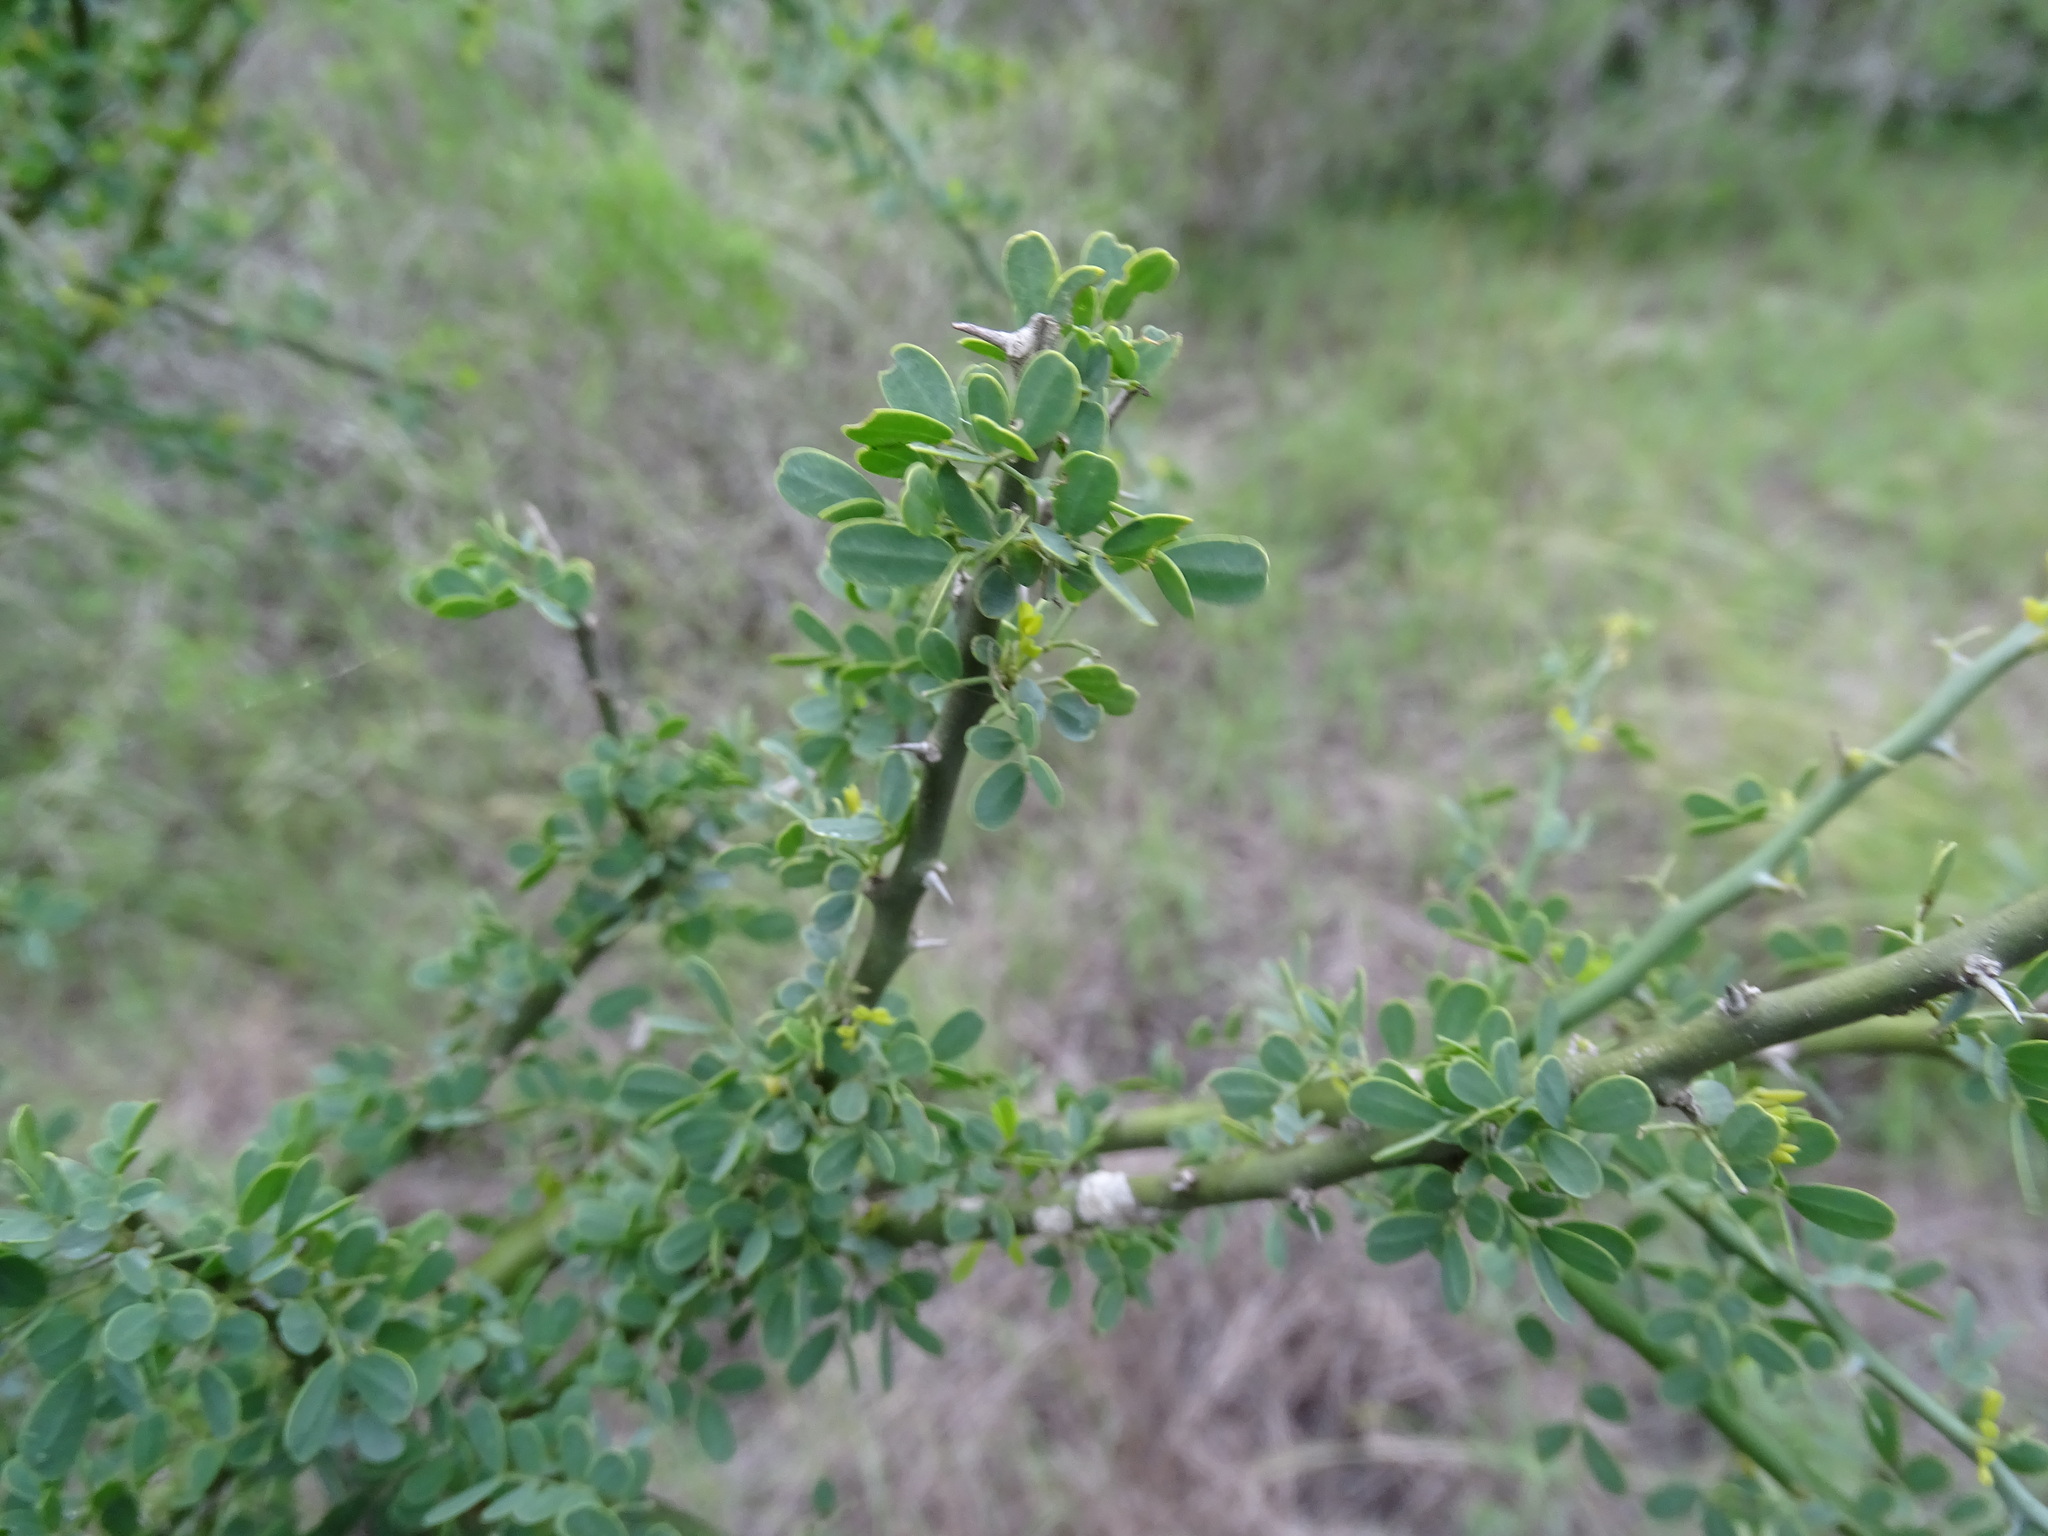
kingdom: Plantae
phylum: Tracheophyta
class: Magnoliopsida
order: Fabales
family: Fabaceae
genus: Parkinsonia
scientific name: Parkinsonia texana
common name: Texas paloverde
